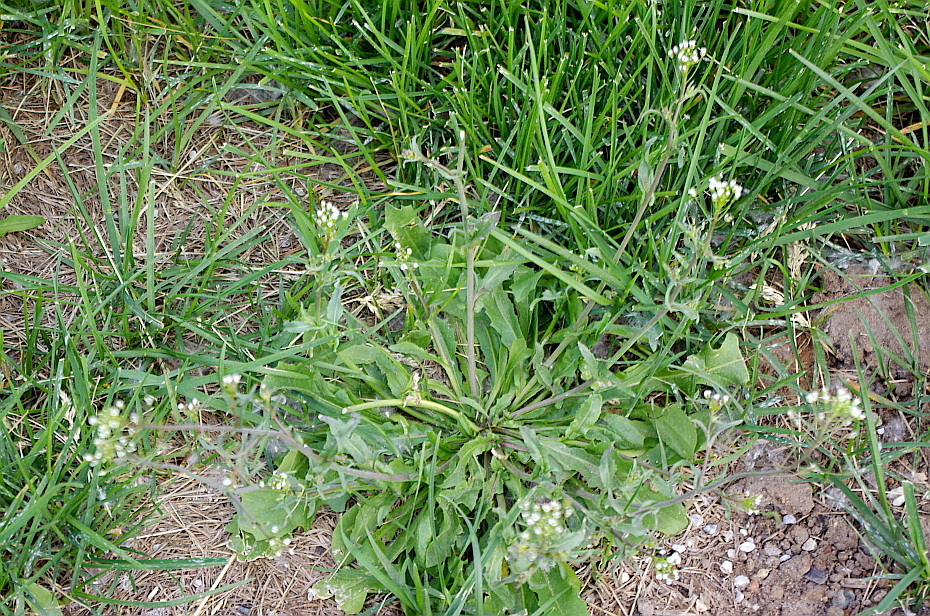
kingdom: Plantae
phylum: Tracheophyta
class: Magnoliopsida
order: Brassicales
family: Brassicaceae
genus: Capsella
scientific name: Capsella bursa-pastoris
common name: Shepherd's purse
